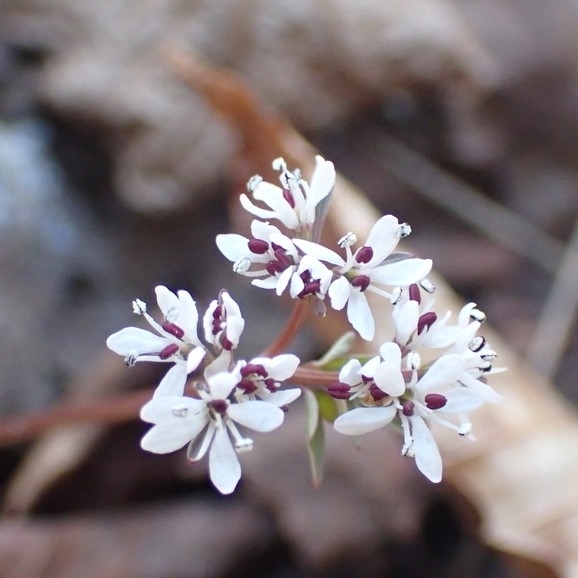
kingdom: Plantae
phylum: Tracheophyta
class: Magnoliopsida
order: Apiales
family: Apiaceae
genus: Erigenia
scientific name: Erigenia bulbosa
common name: Pepper-and-salt
